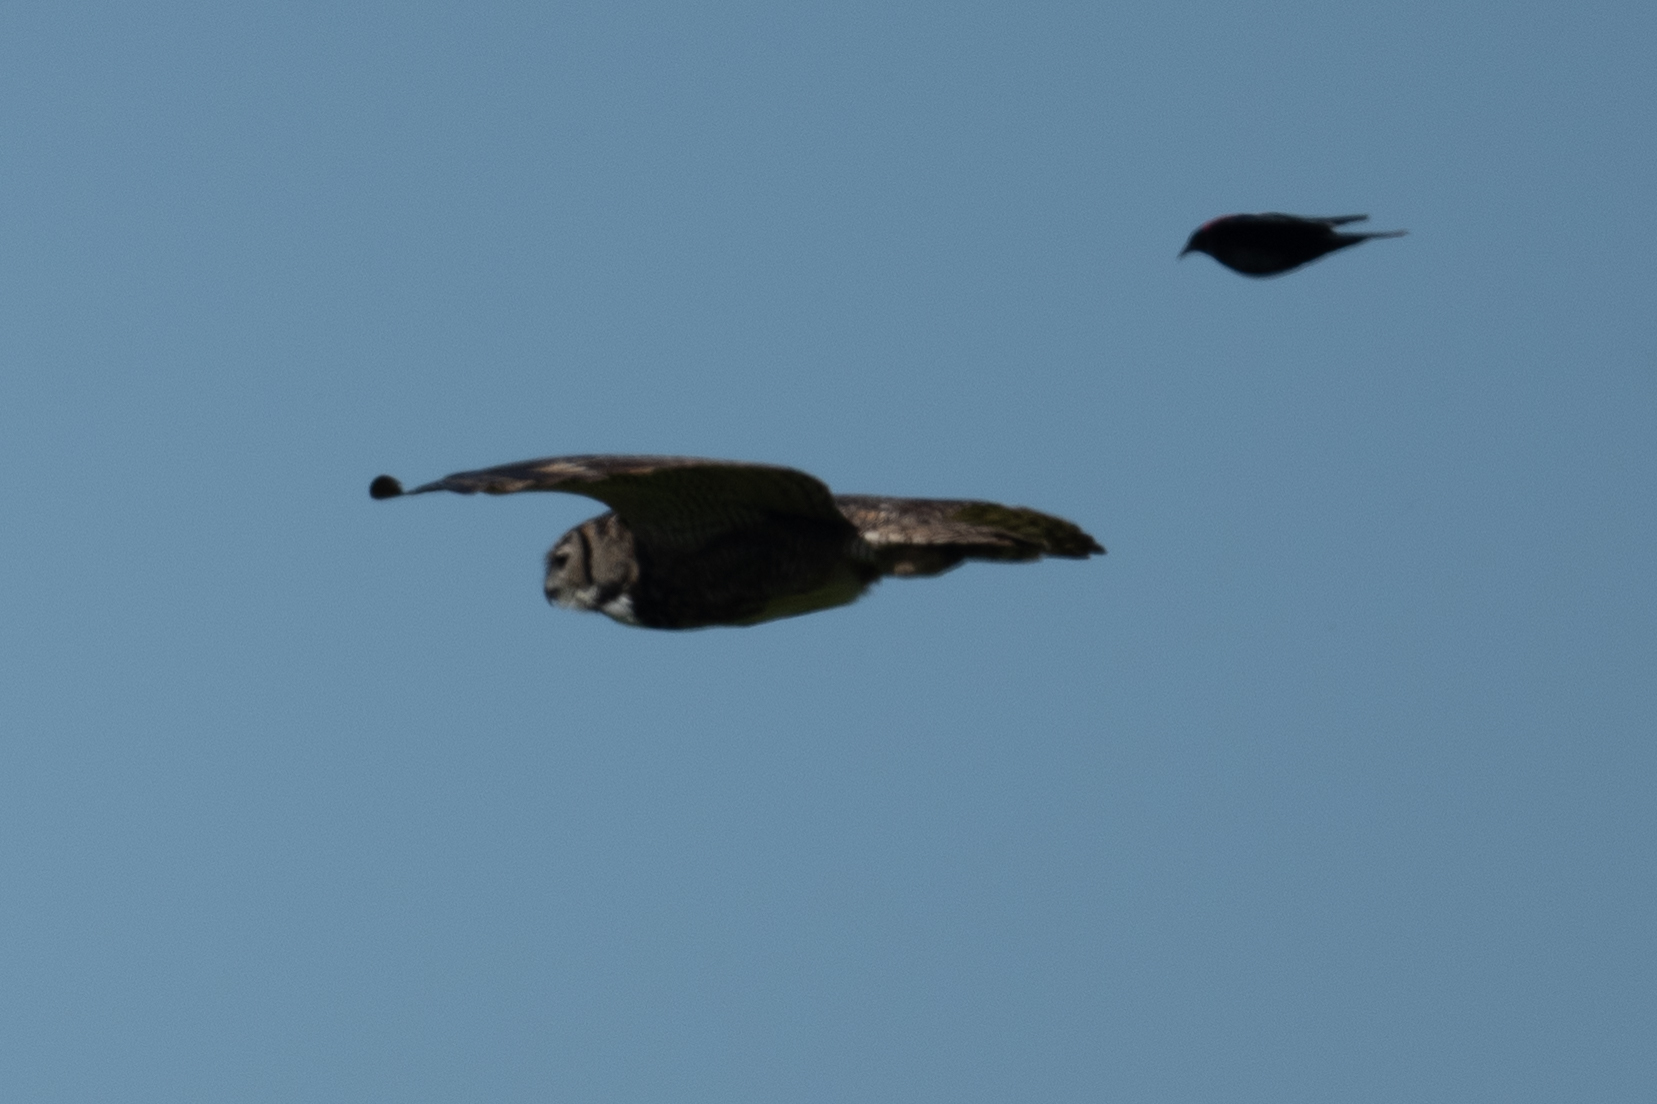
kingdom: Animalia
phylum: Chordata
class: Aves
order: Strigiformes
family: Strigidae
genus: Bubo
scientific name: Bubo virginianus
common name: Great horned owl
